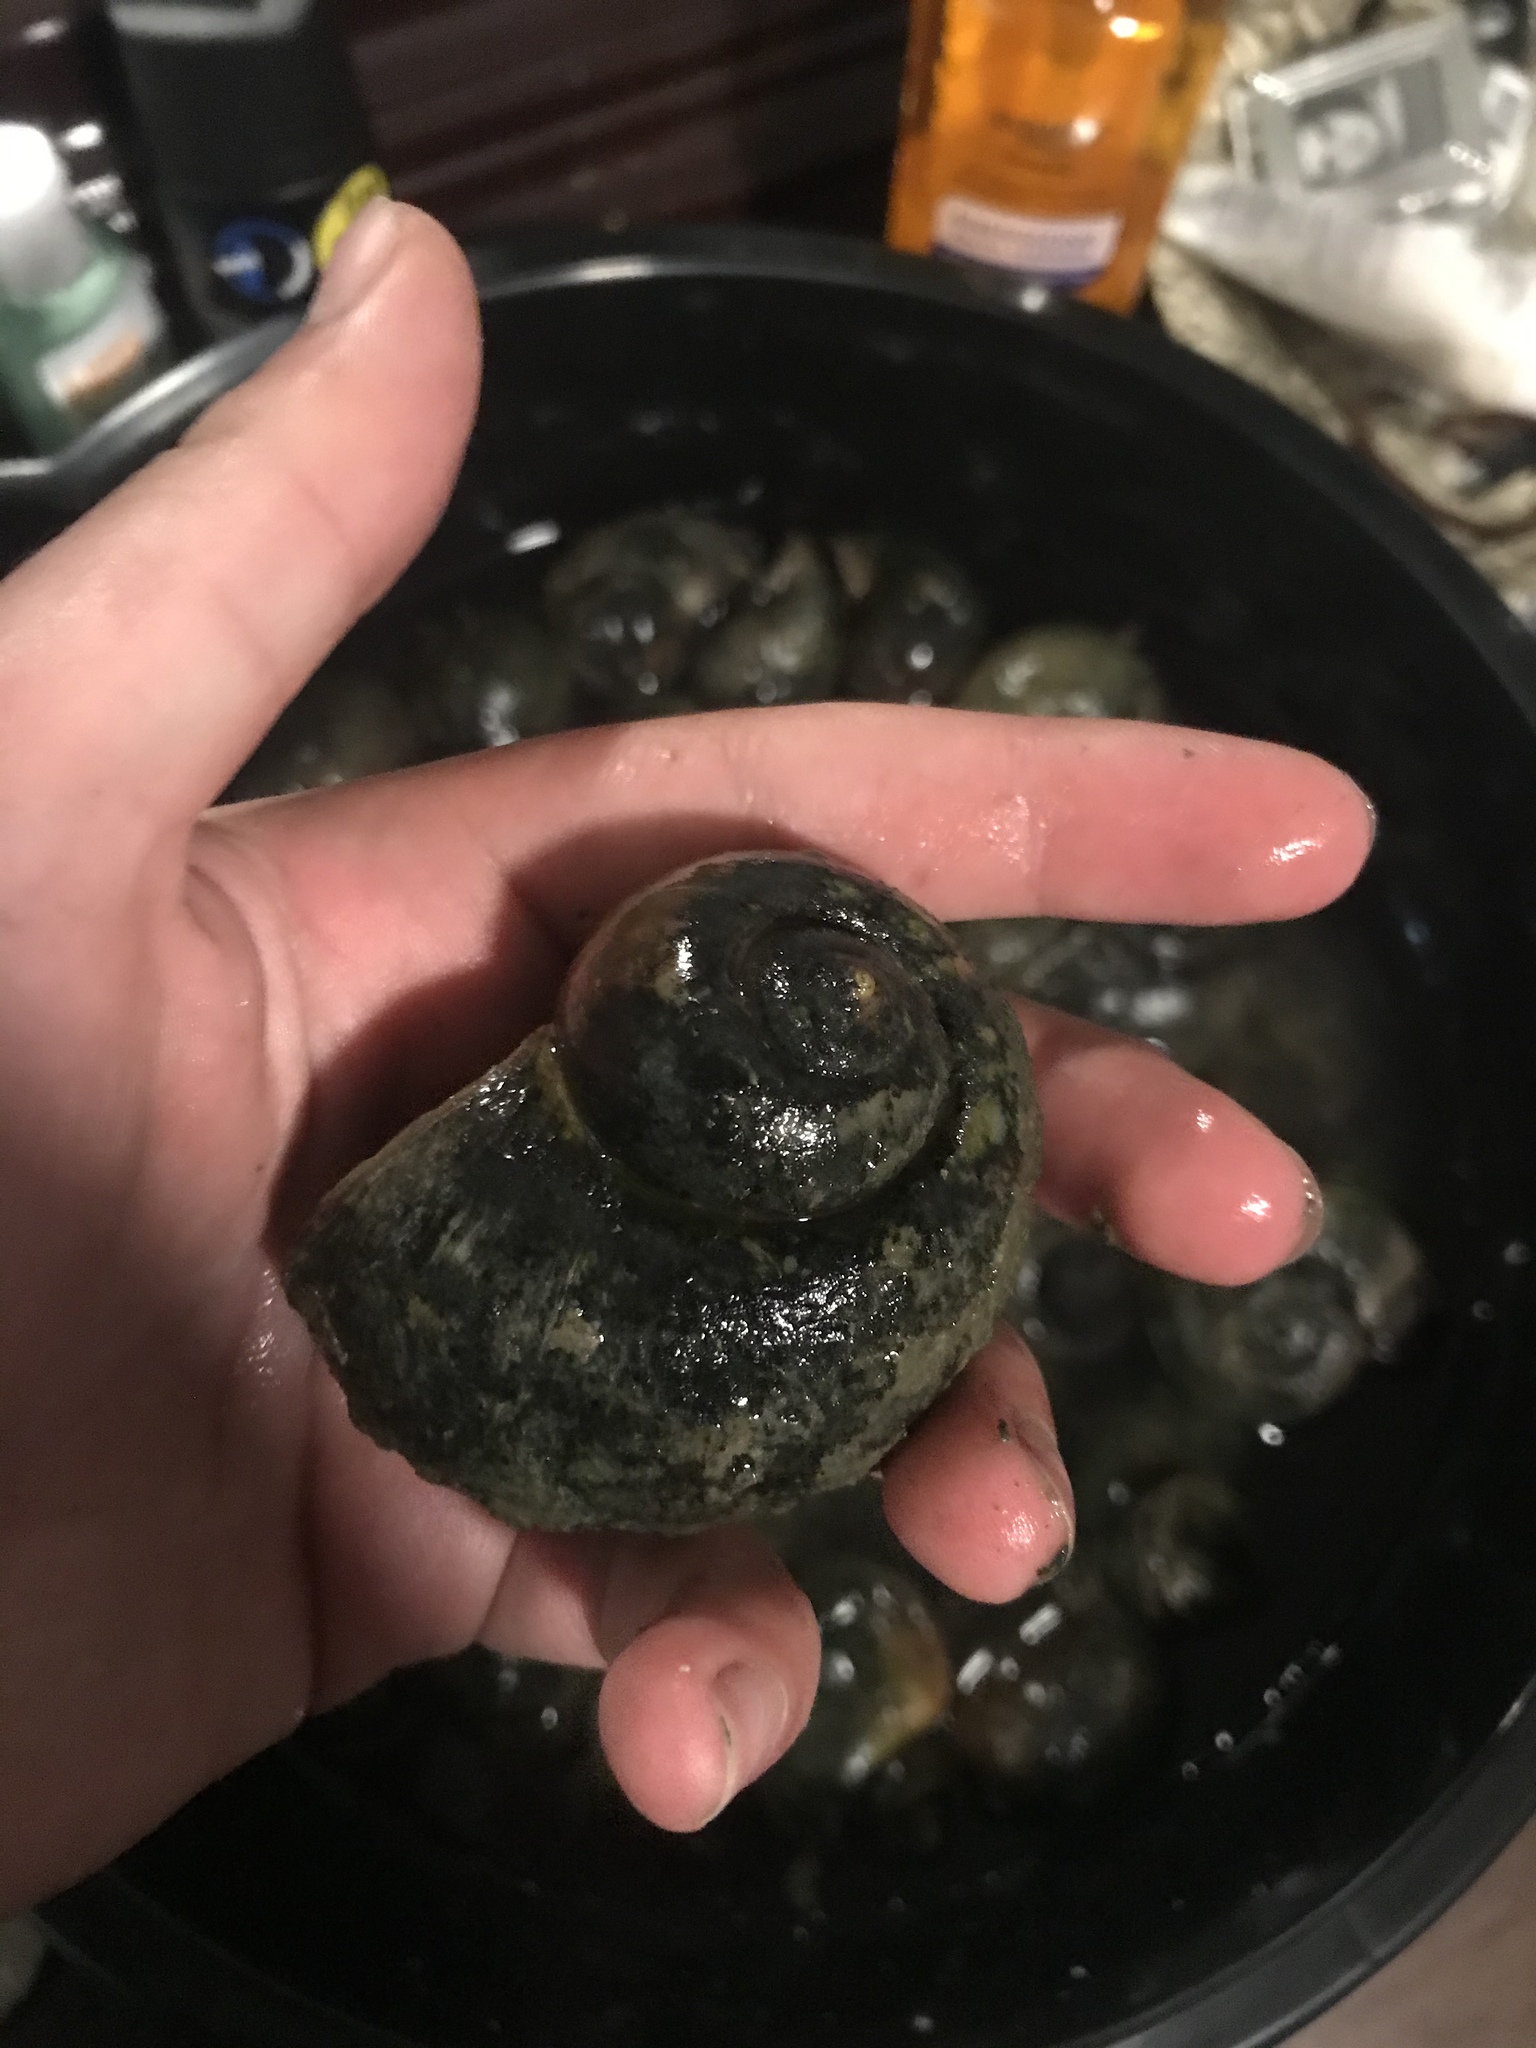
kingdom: Animalia
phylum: Mollusca
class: Gastropoda
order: Architaenioglossa
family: Ampullariidae
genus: Pomacea
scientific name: Pomacea canaliculata
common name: Channeled applesnail
